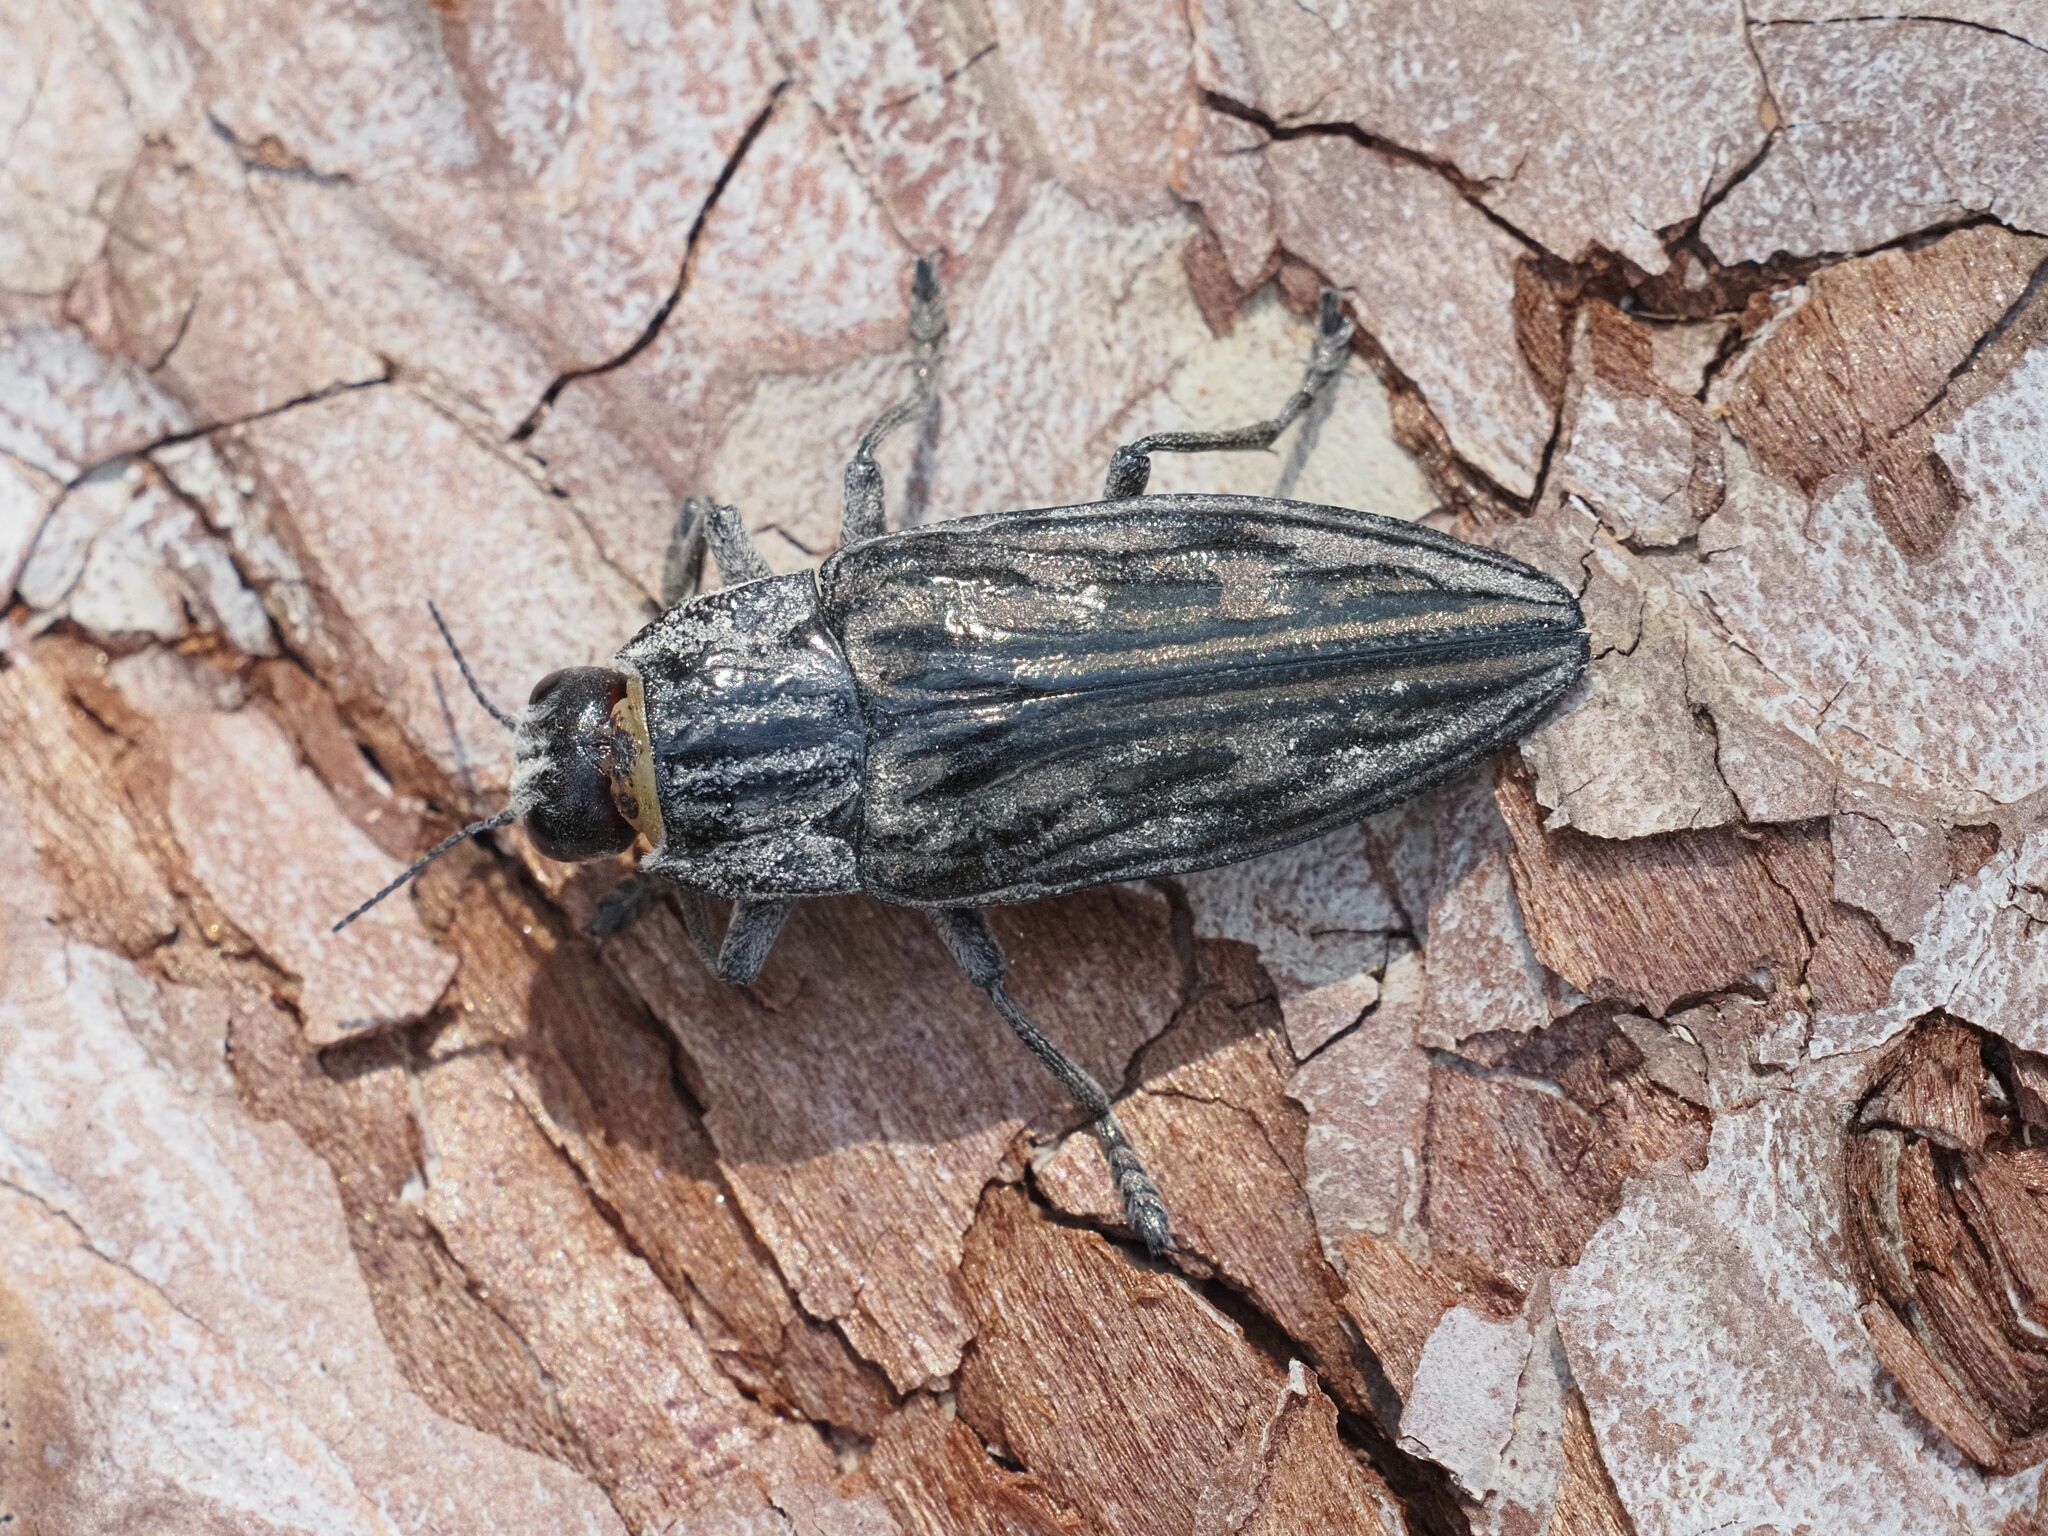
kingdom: Animalia
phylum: Arthropoda
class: Insecta
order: Coleoptera
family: Buprestidae
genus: Chalcophora
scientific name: Chalcophora mariana
